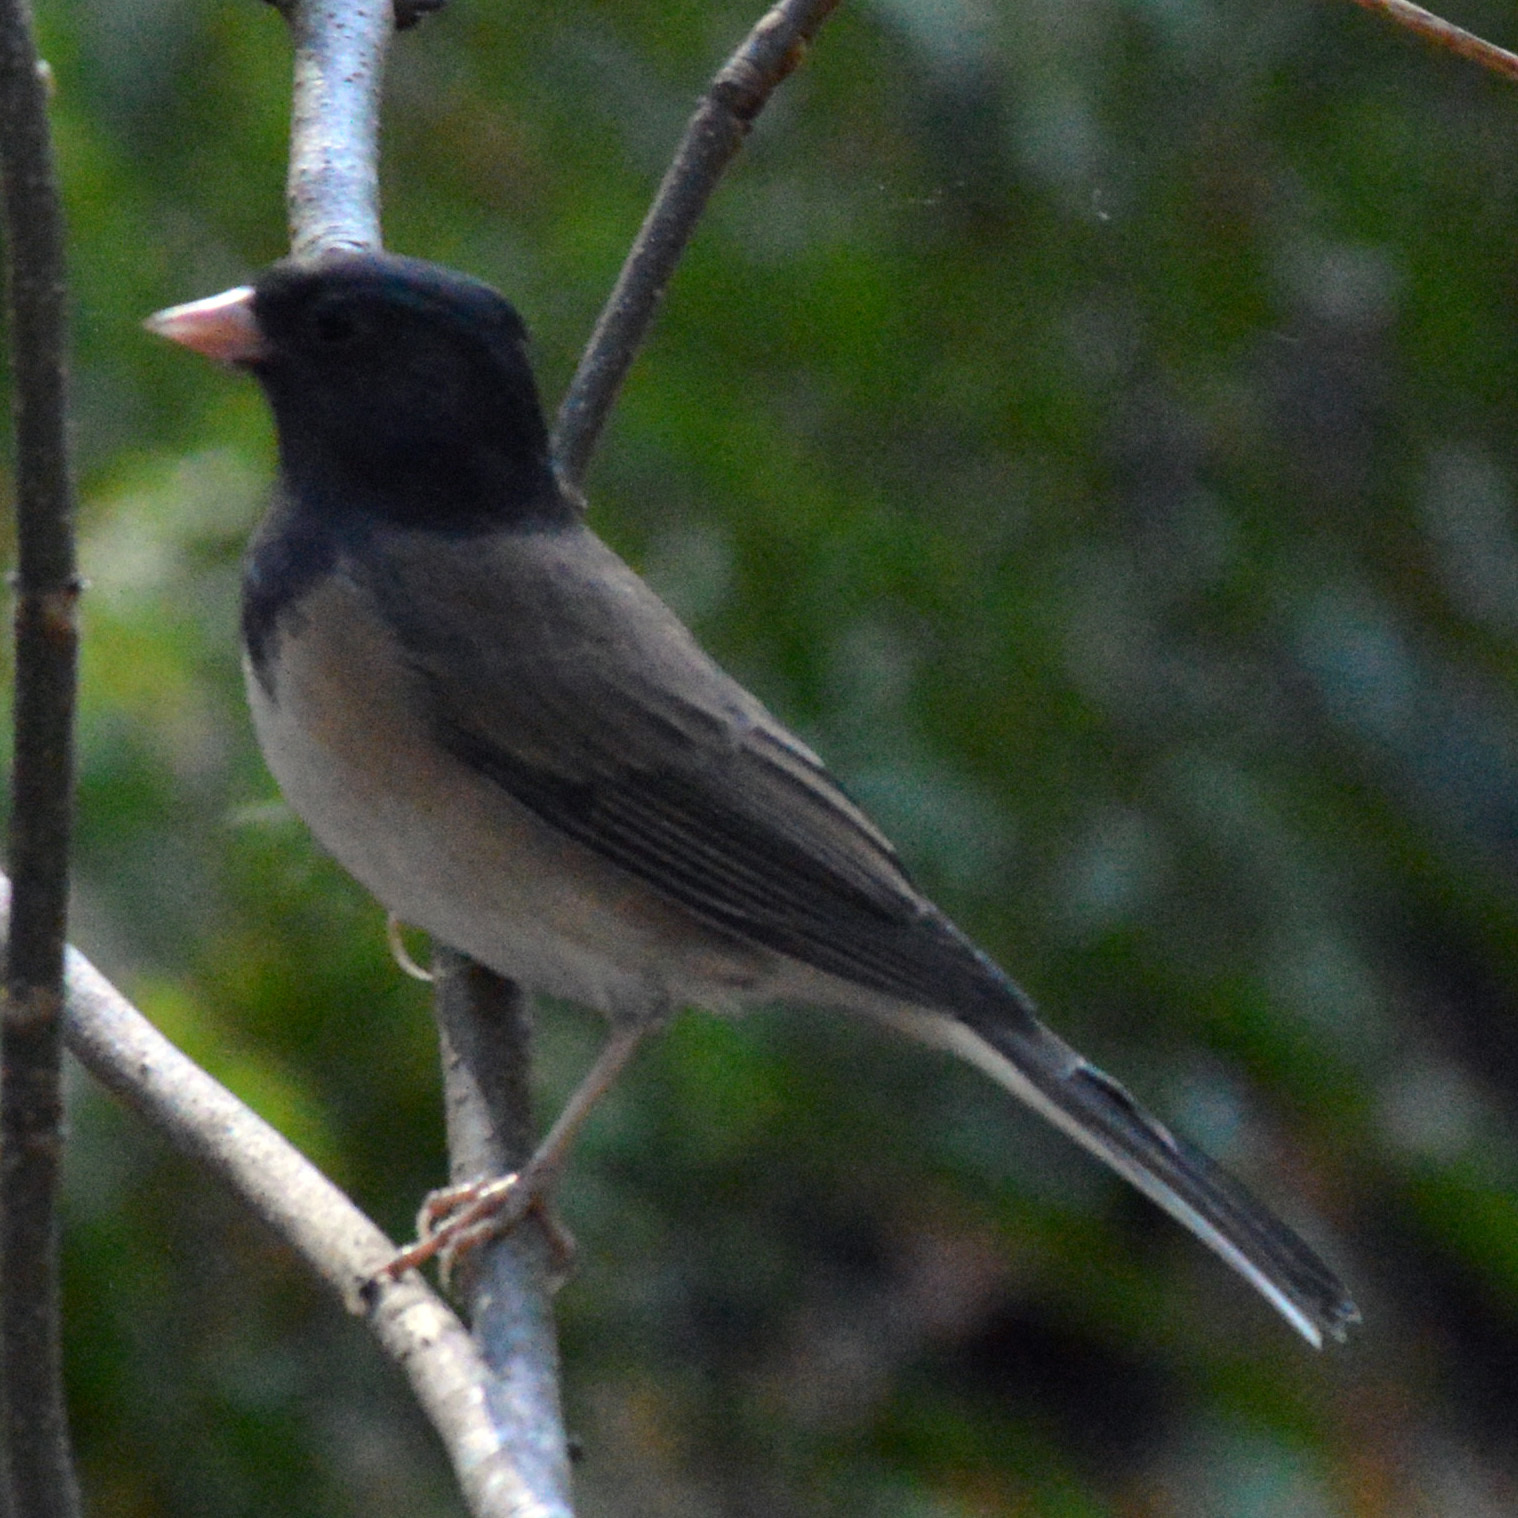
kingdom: Animalia
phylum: Chordata
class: Aves
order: Passeriformes
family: Passerellidae
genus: Junco
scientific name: Junco hyemalis
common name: Dark-eyed junco
